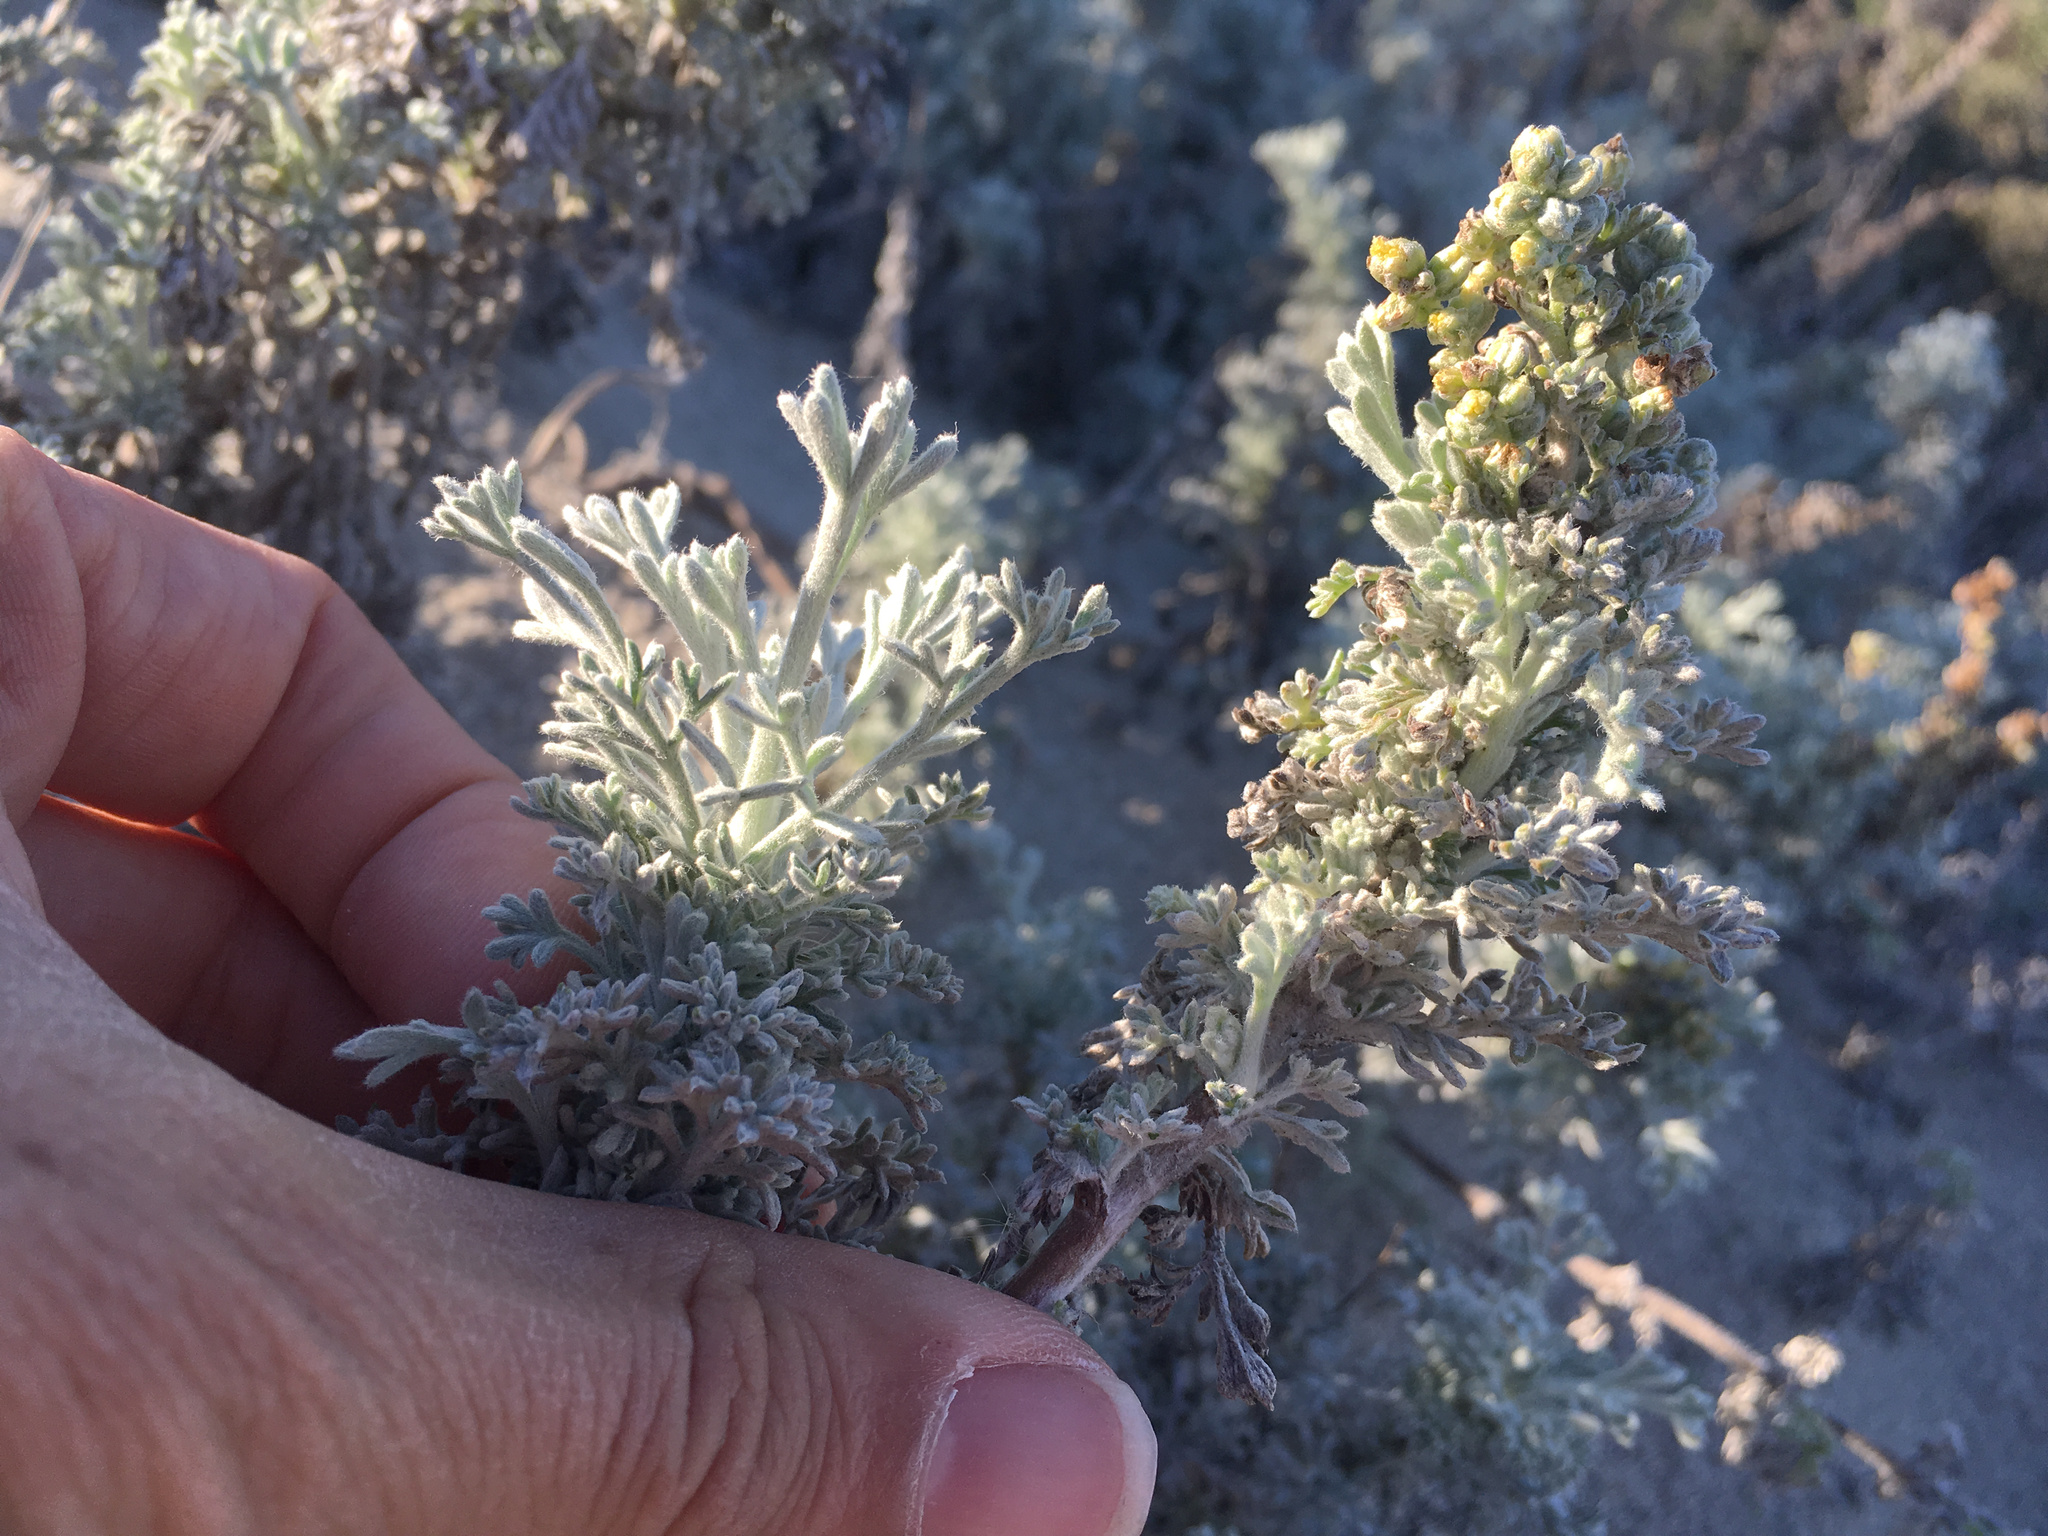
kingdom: Plantae
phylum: Tracheophyta
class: Magnoliopsida
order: Asterales
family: Asteraceae
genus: Artemisia
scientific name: Artemisia pycnocephala
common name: Coastal sagewort
